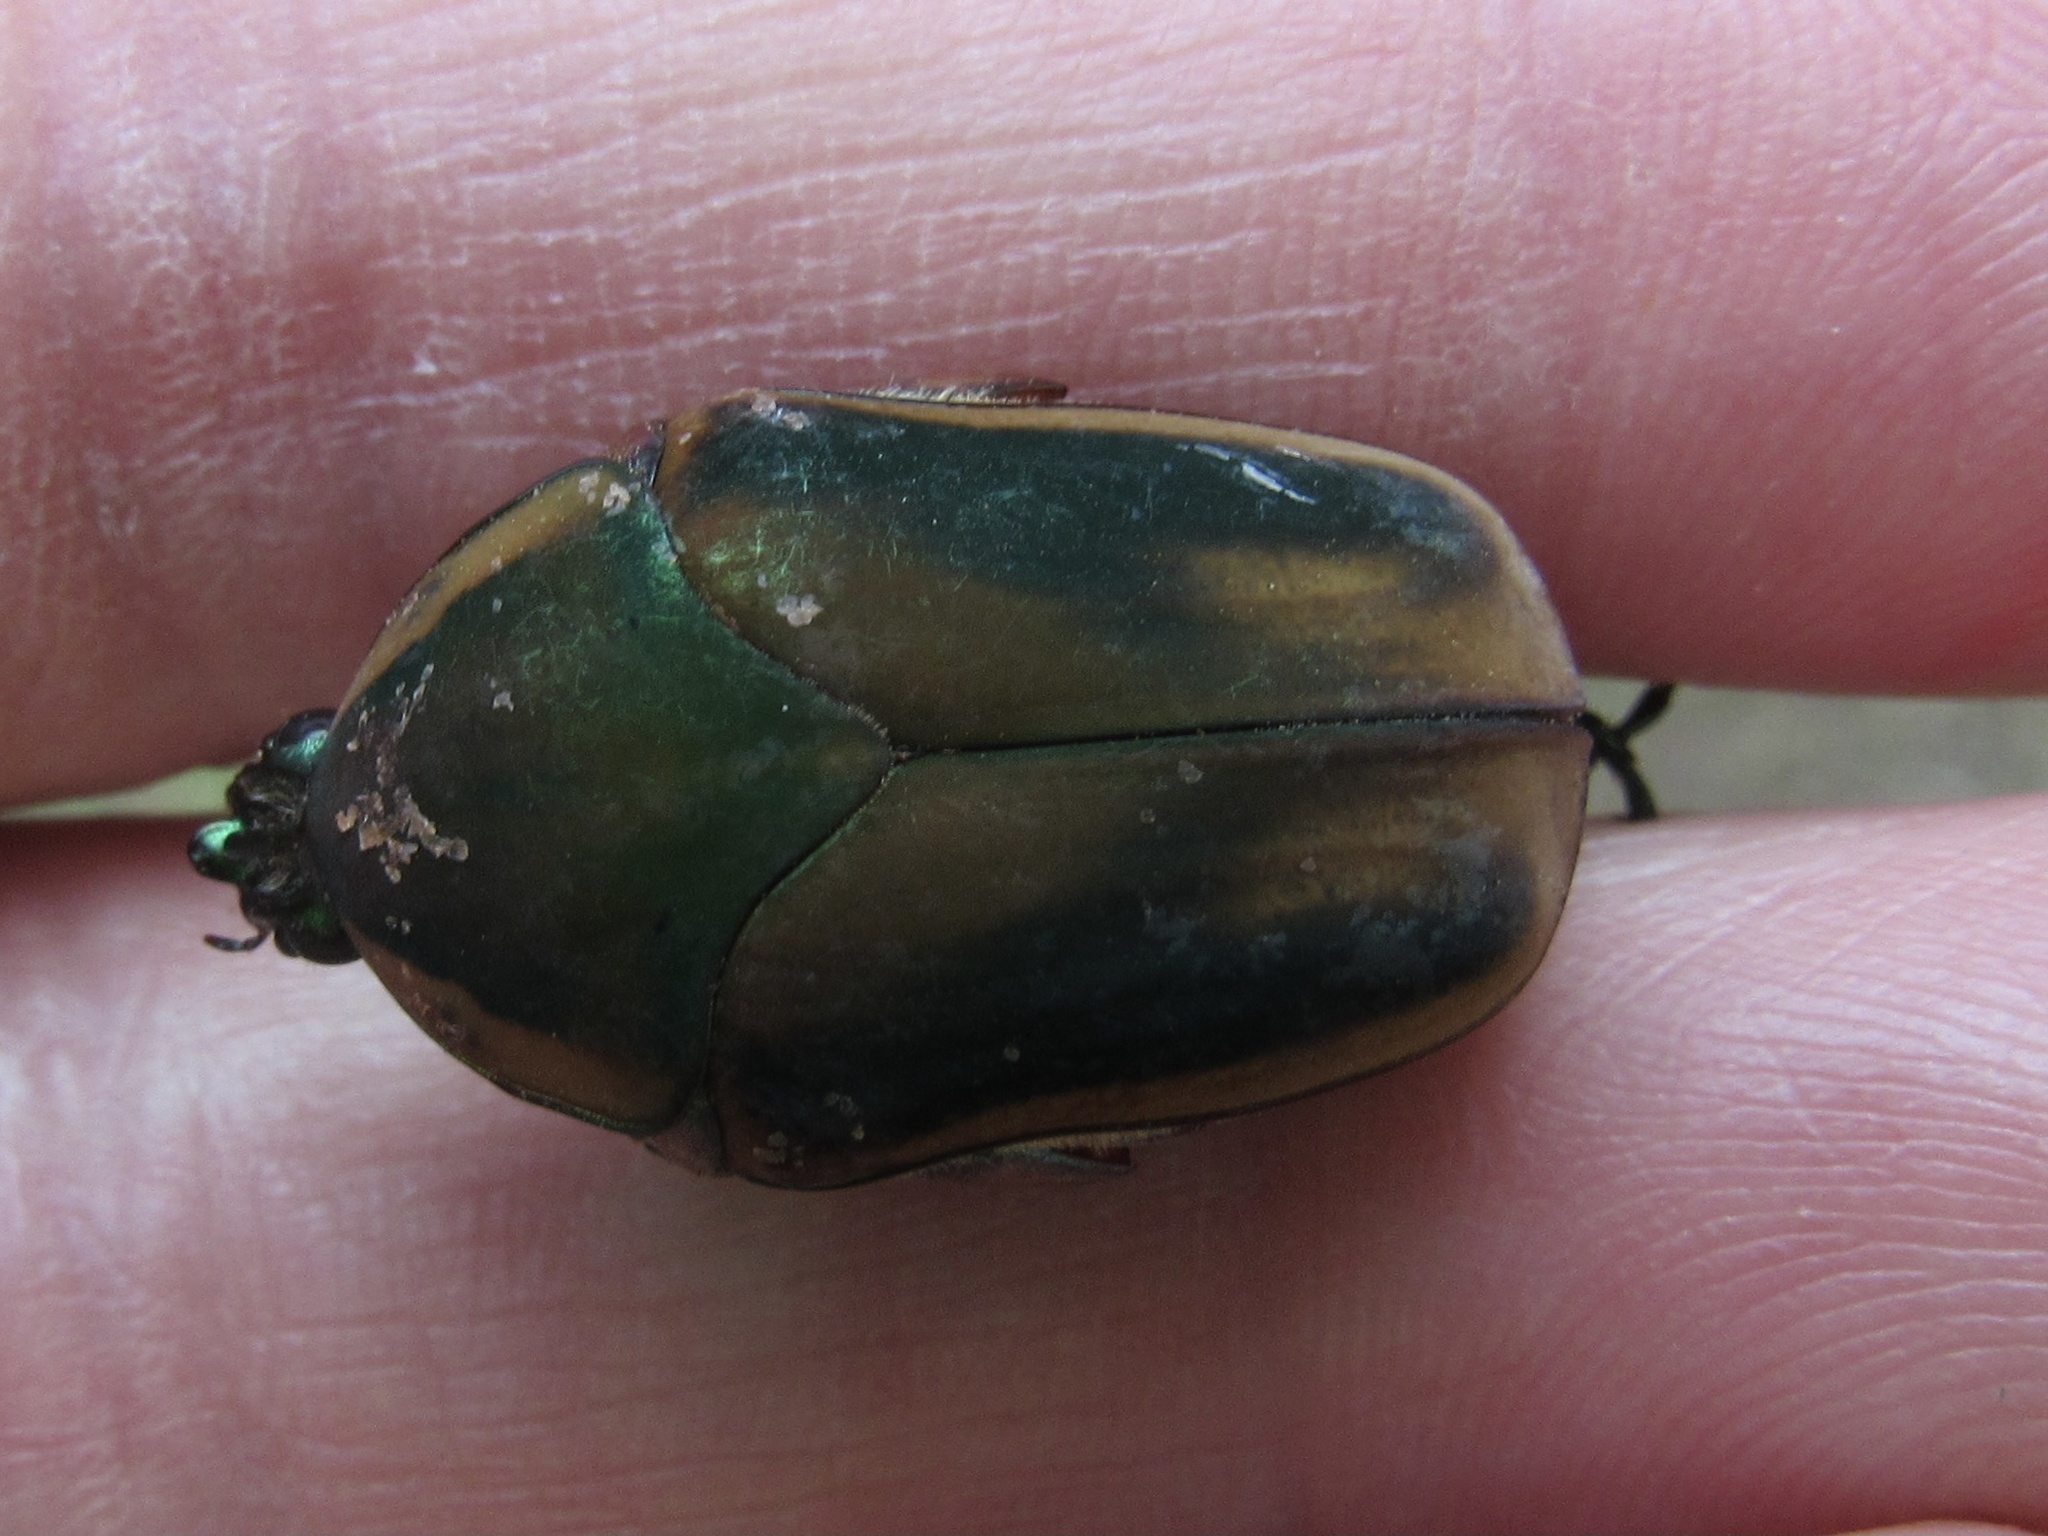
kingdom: Animalia
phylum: Arthropoda
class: Insecta
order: Coleoptera
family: Scarabaeidae
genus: Cotinis
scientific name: Cotinis nitida
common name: Common green june beetle
